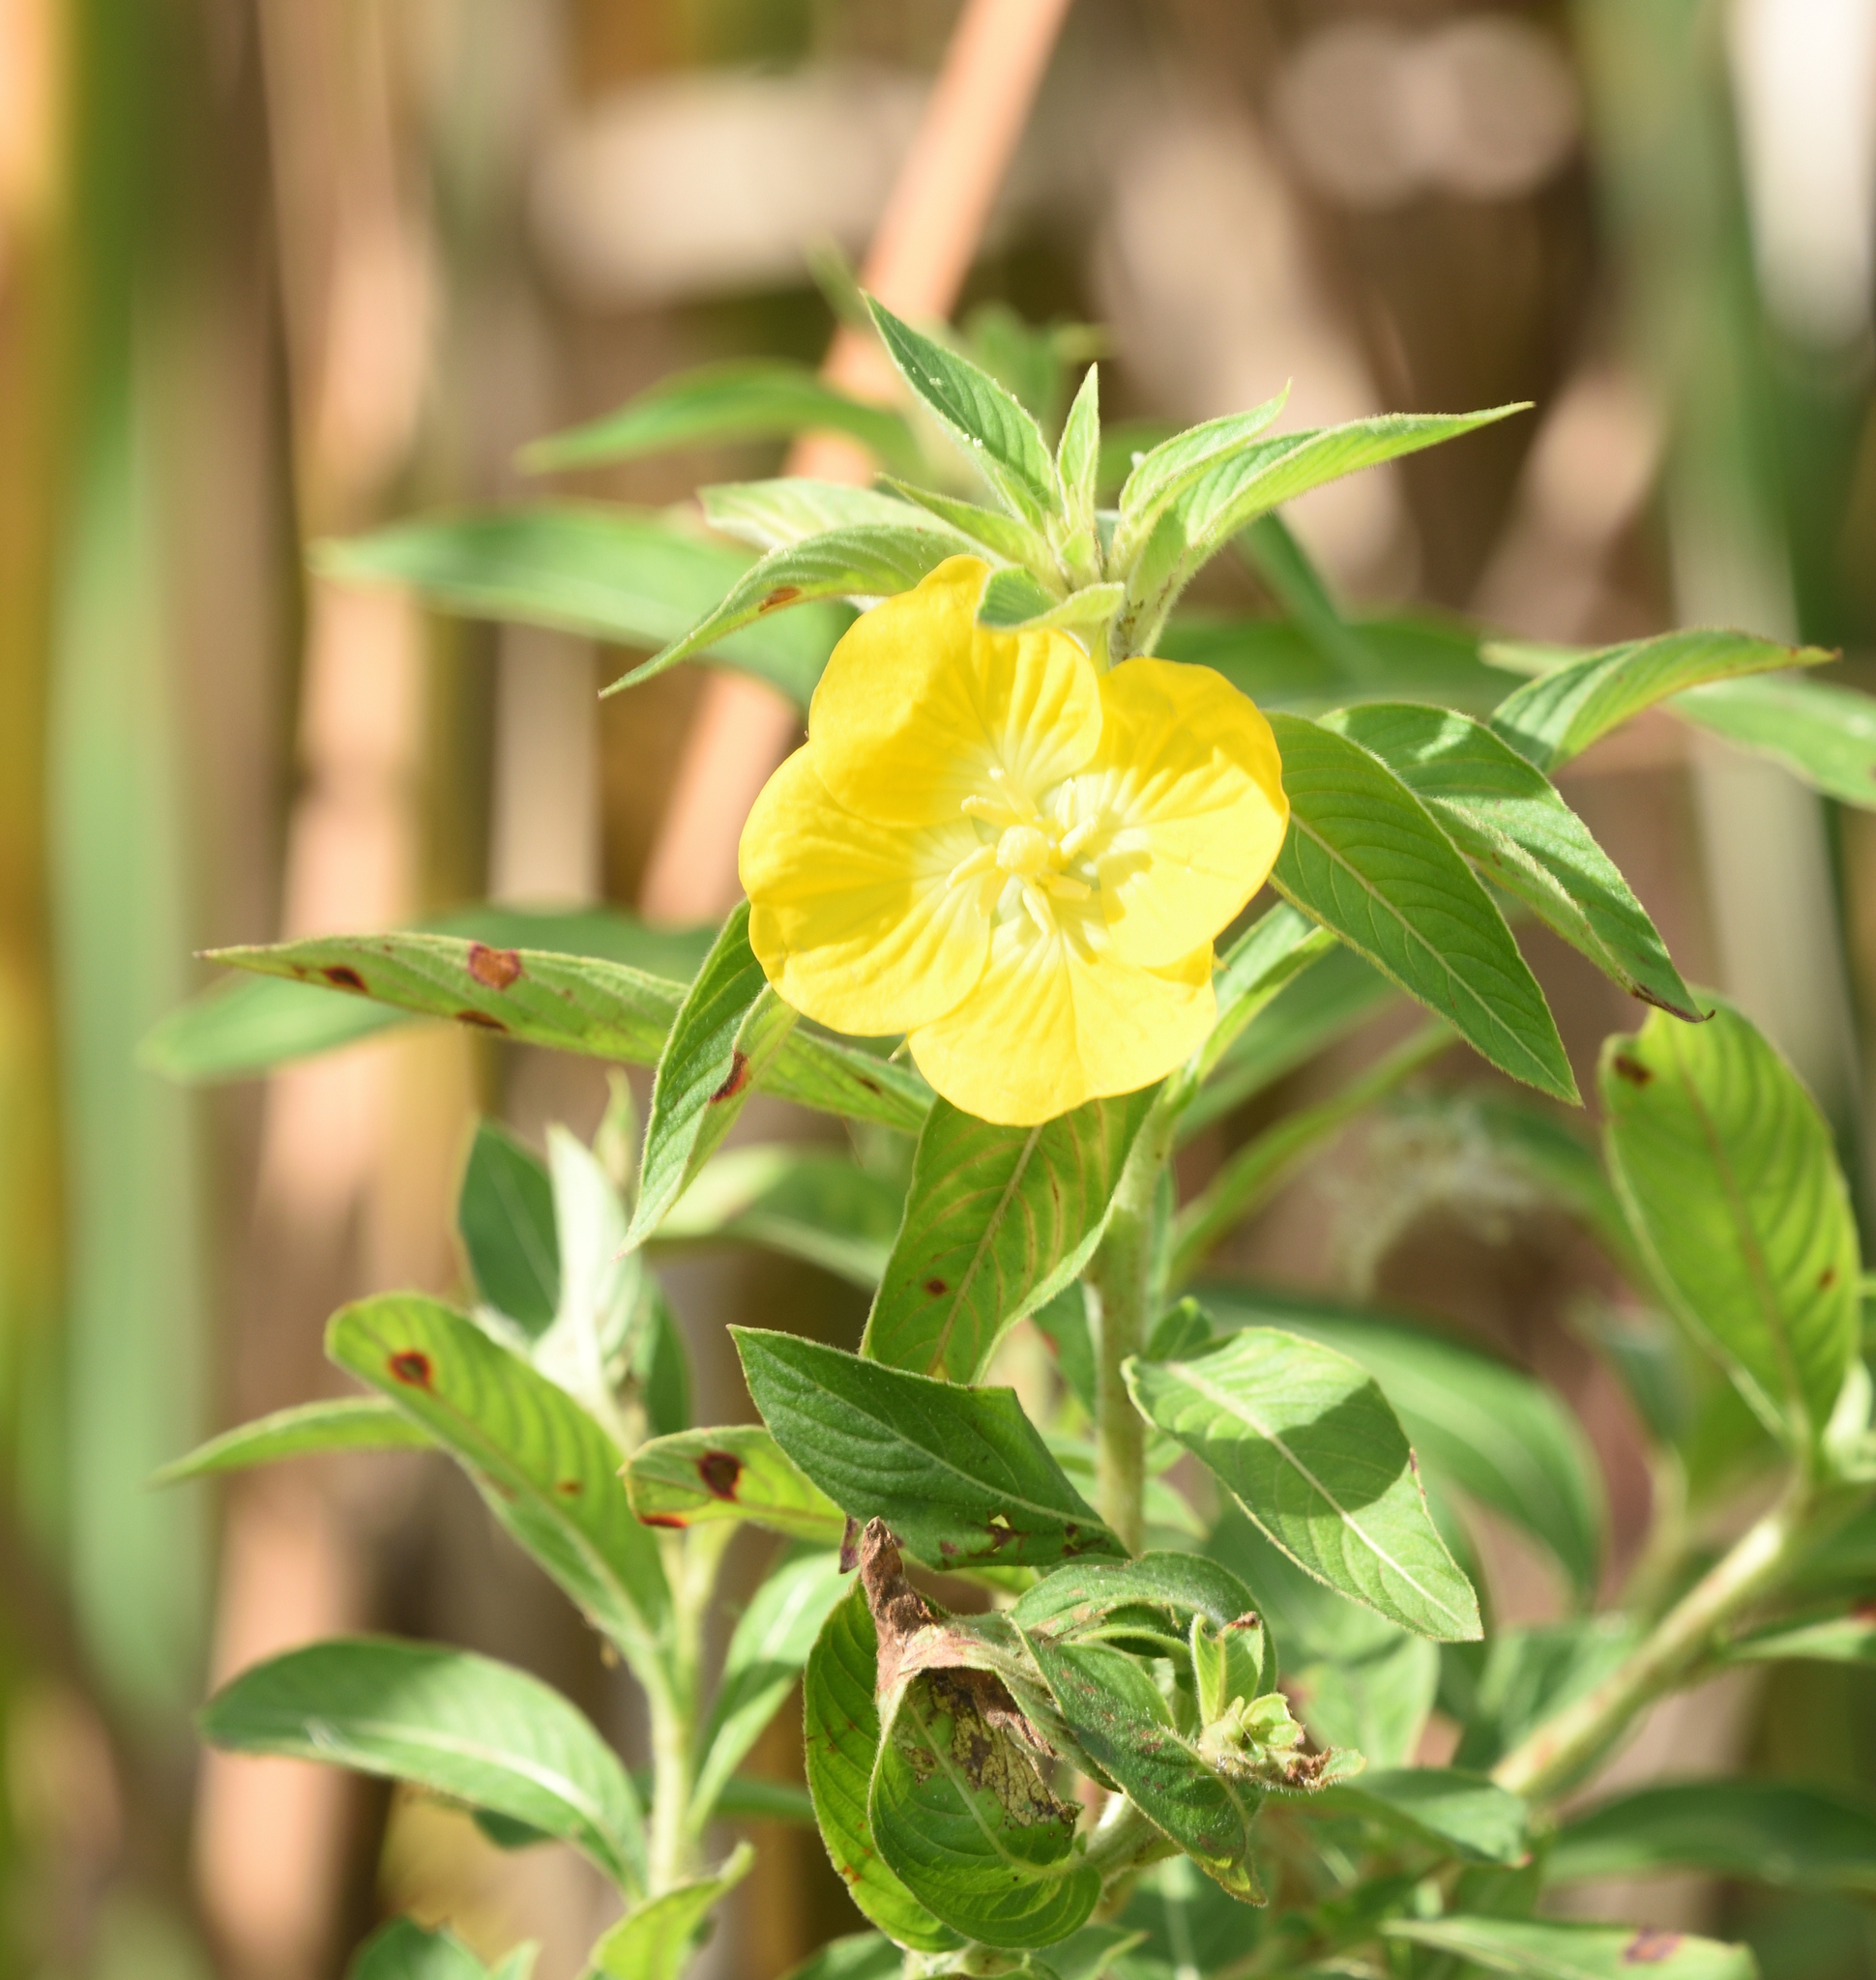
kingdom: Plantae
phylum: Tracheophyta
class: Magnoliopsida
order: Myrtales
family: Onagraceae
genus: Ludwigia
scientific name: Ludwigia peruviana
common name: Peruvian primrose-willow
